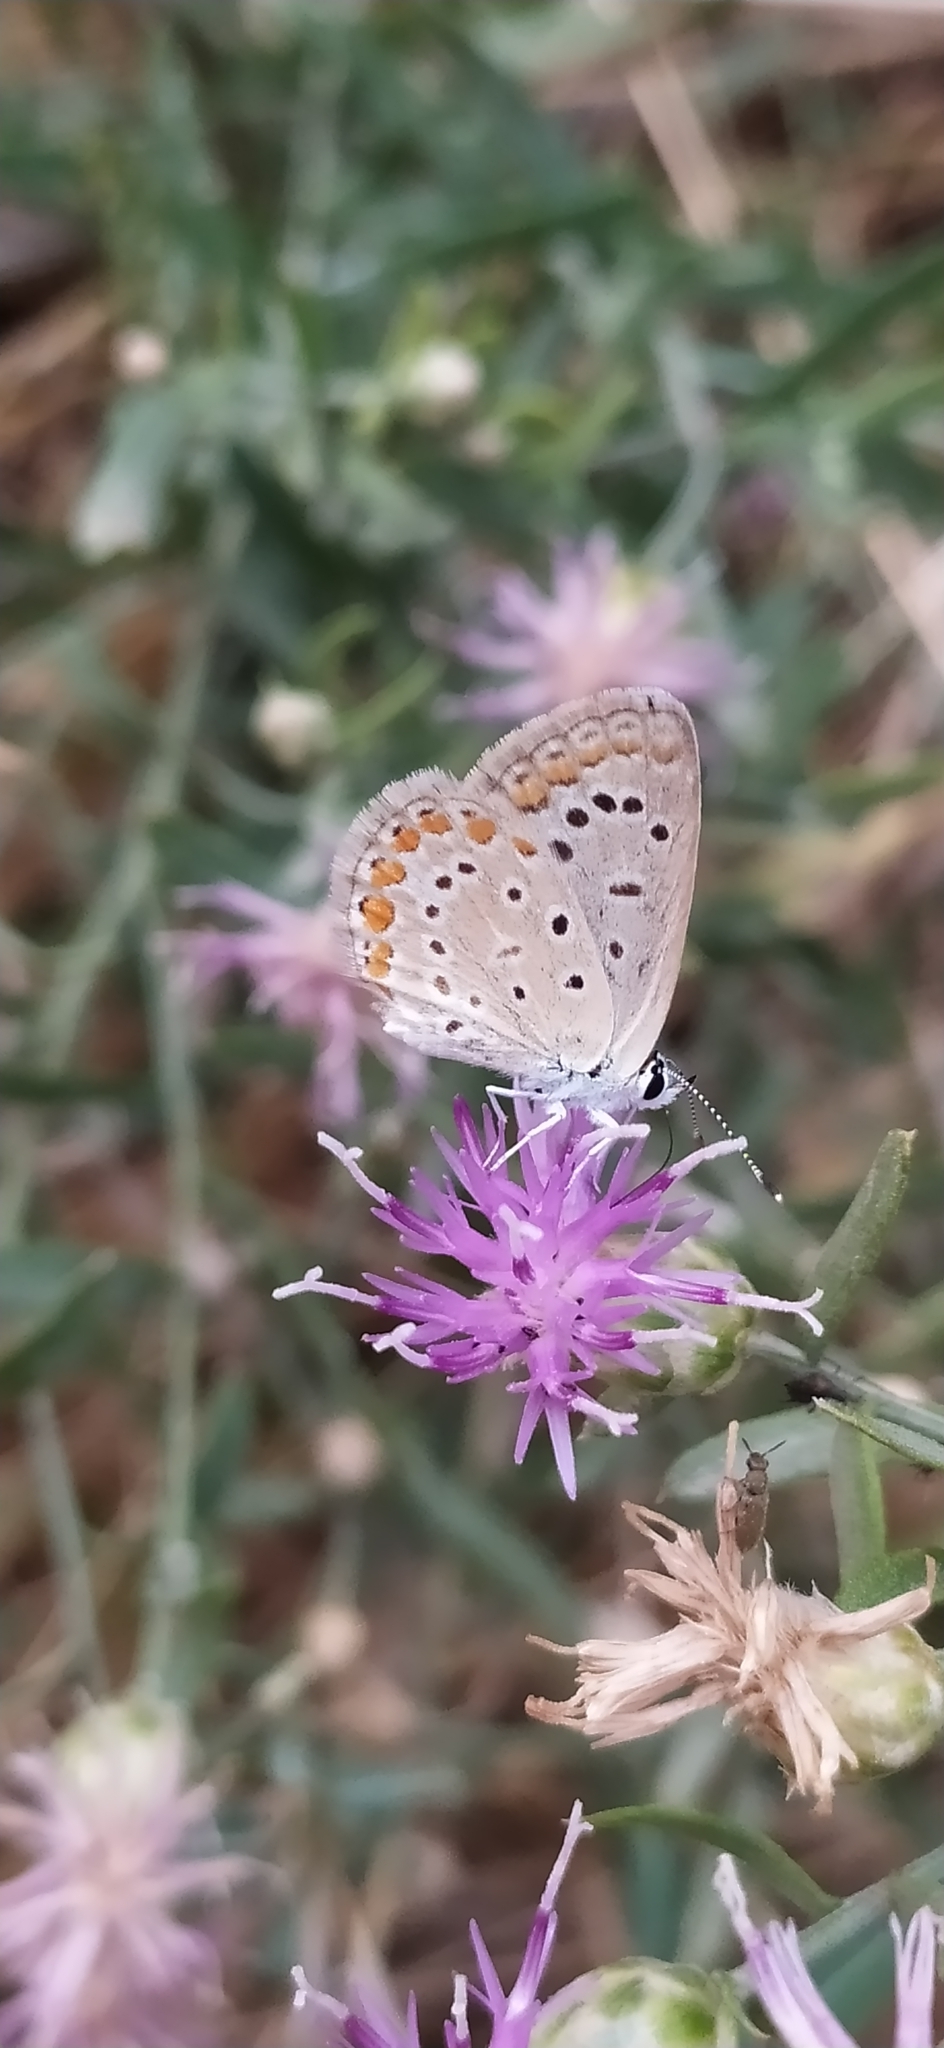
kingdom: Animalia
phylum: Arthropoda
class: Insecta
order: Lepidoptera
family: Lycaenidae
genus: Polyommatus
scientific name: Polyommatus icarus
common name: Common blue
